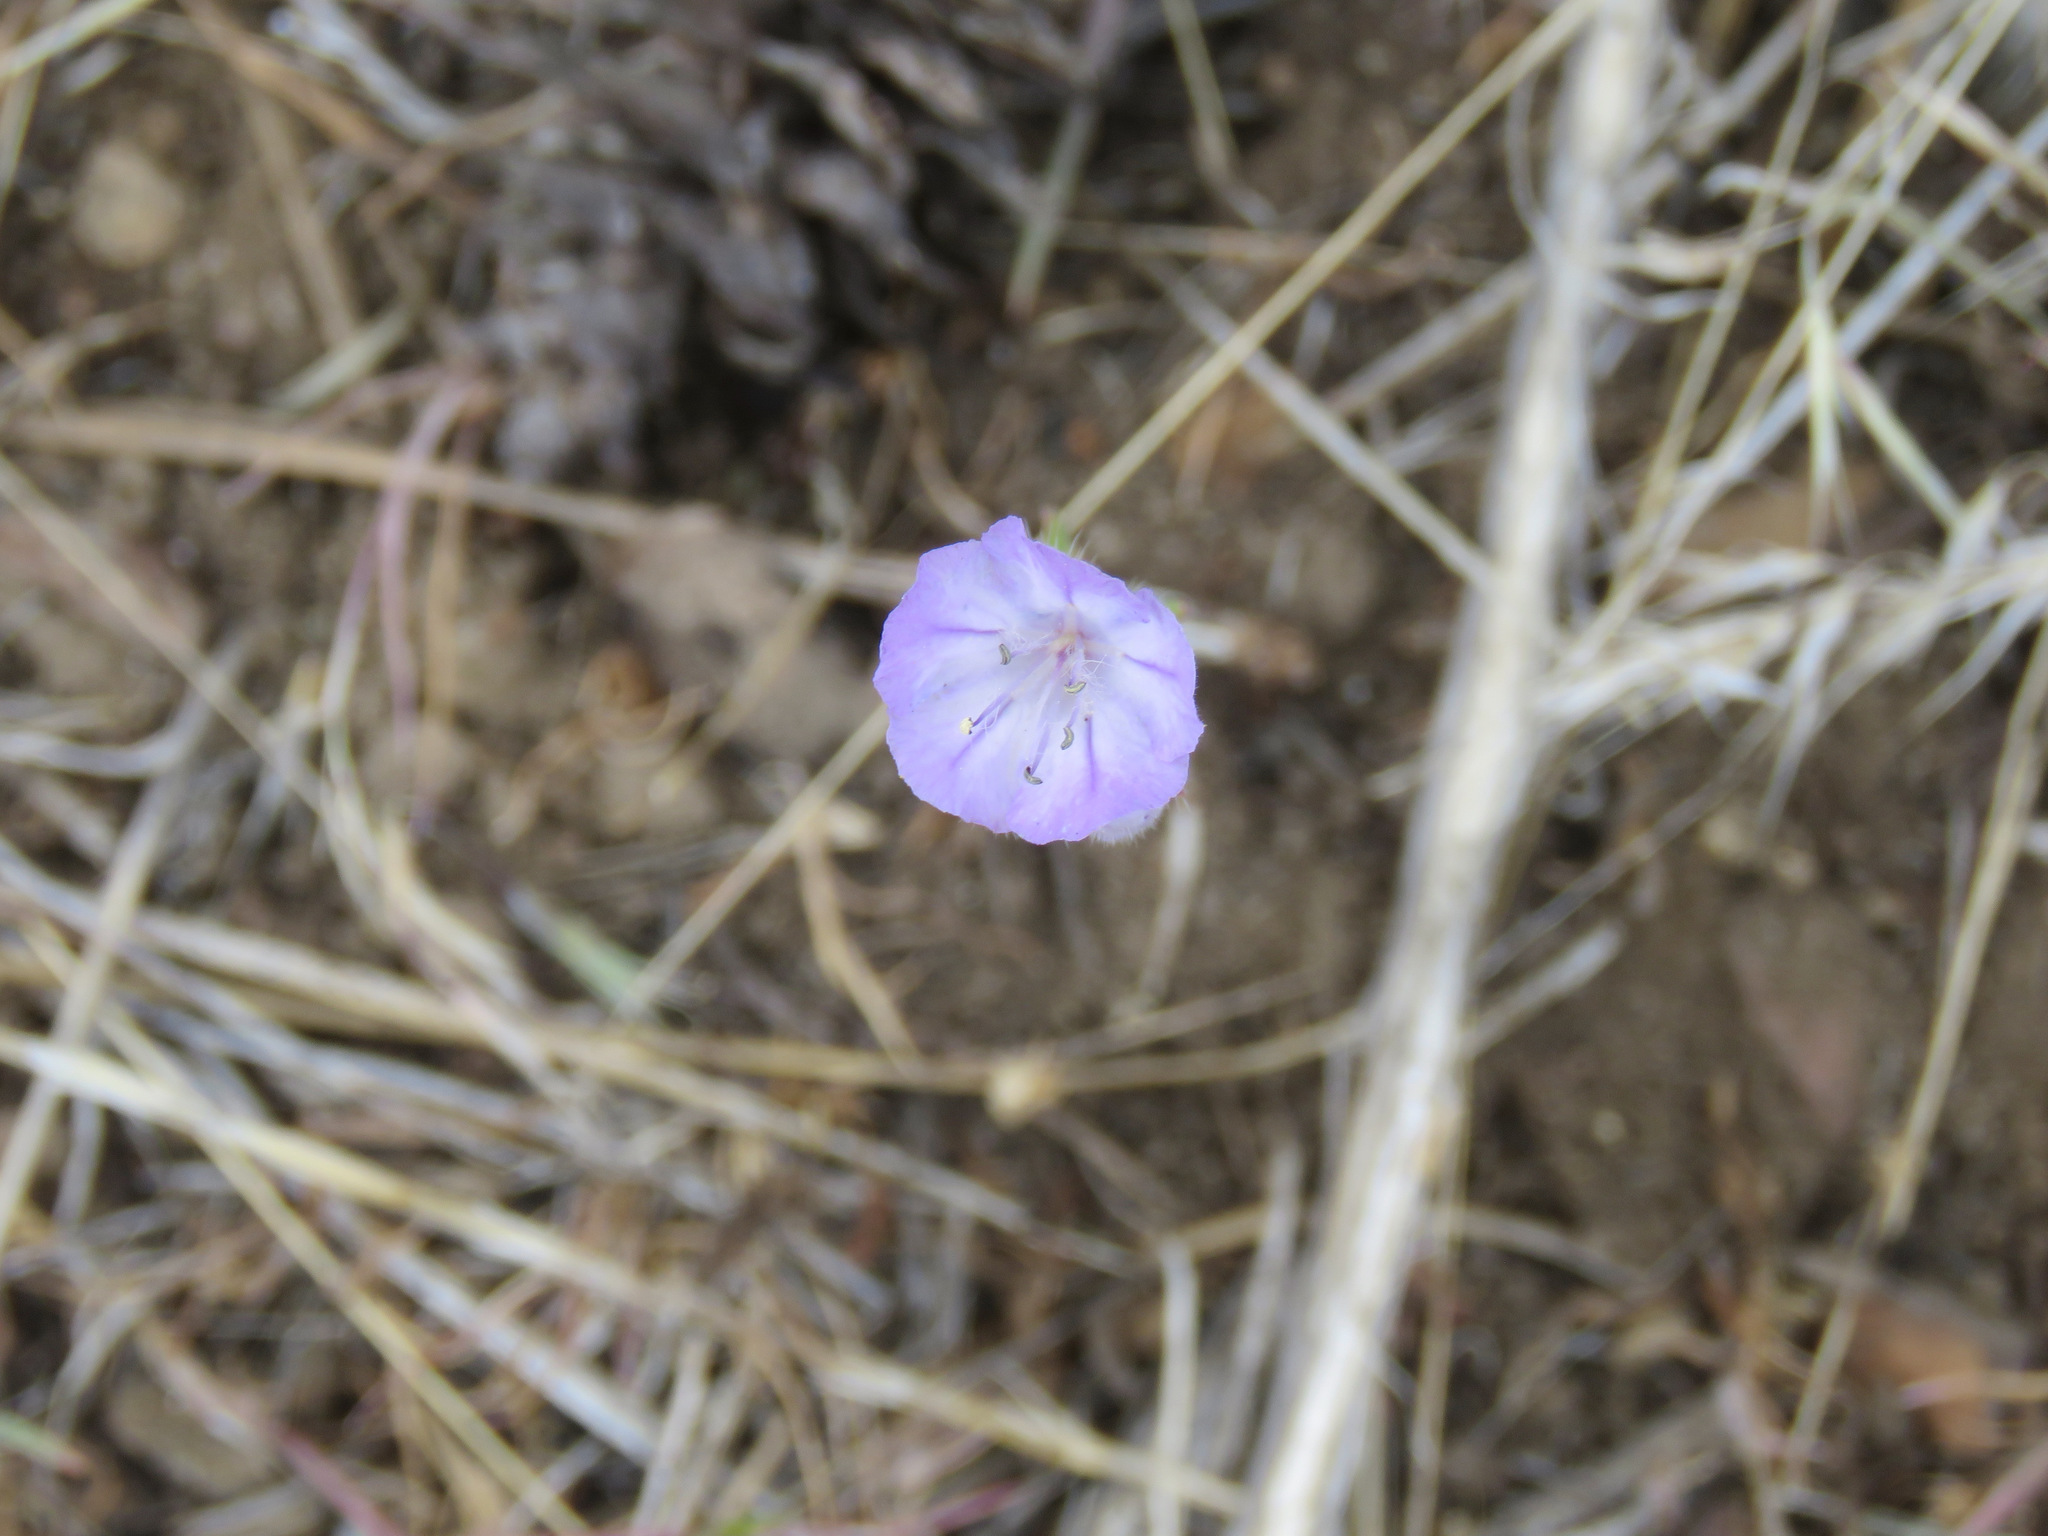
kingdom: Plantae
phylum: Tracheophyta
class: Magnoliopsida
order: Boraginales
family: Hydrophyllaceae
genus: Phacelia
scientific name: Phacelia linearis
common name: Linear-leaved phacelia
